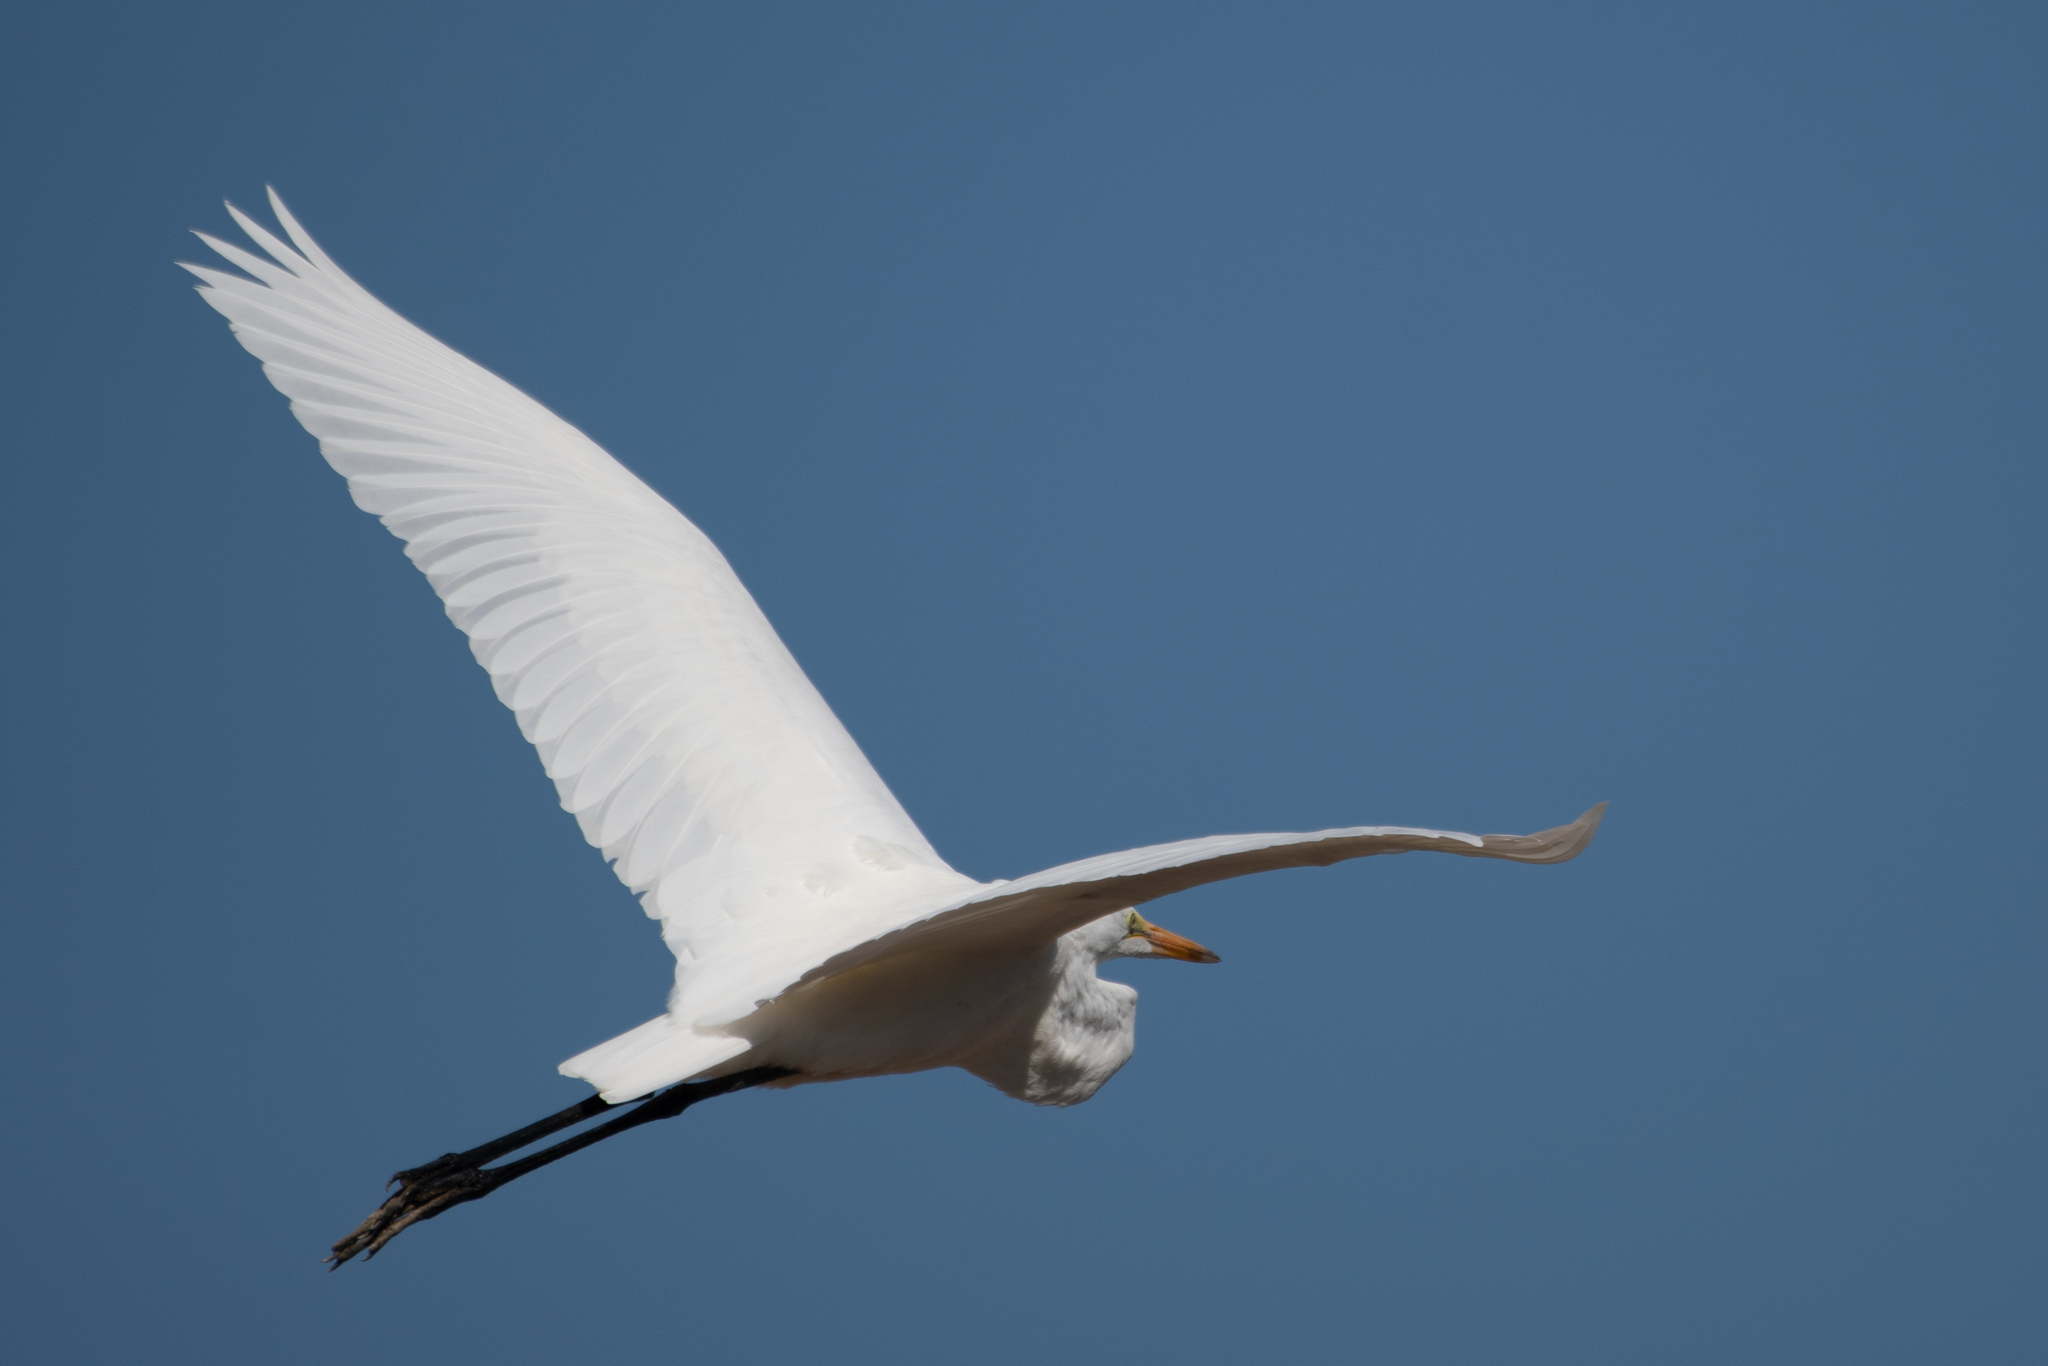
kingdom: Animalia
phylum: Chordata
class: Aves
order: Pelecaniformes
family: Ardeidae
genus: Ardea
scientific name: Ardea alba
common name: Great egret
